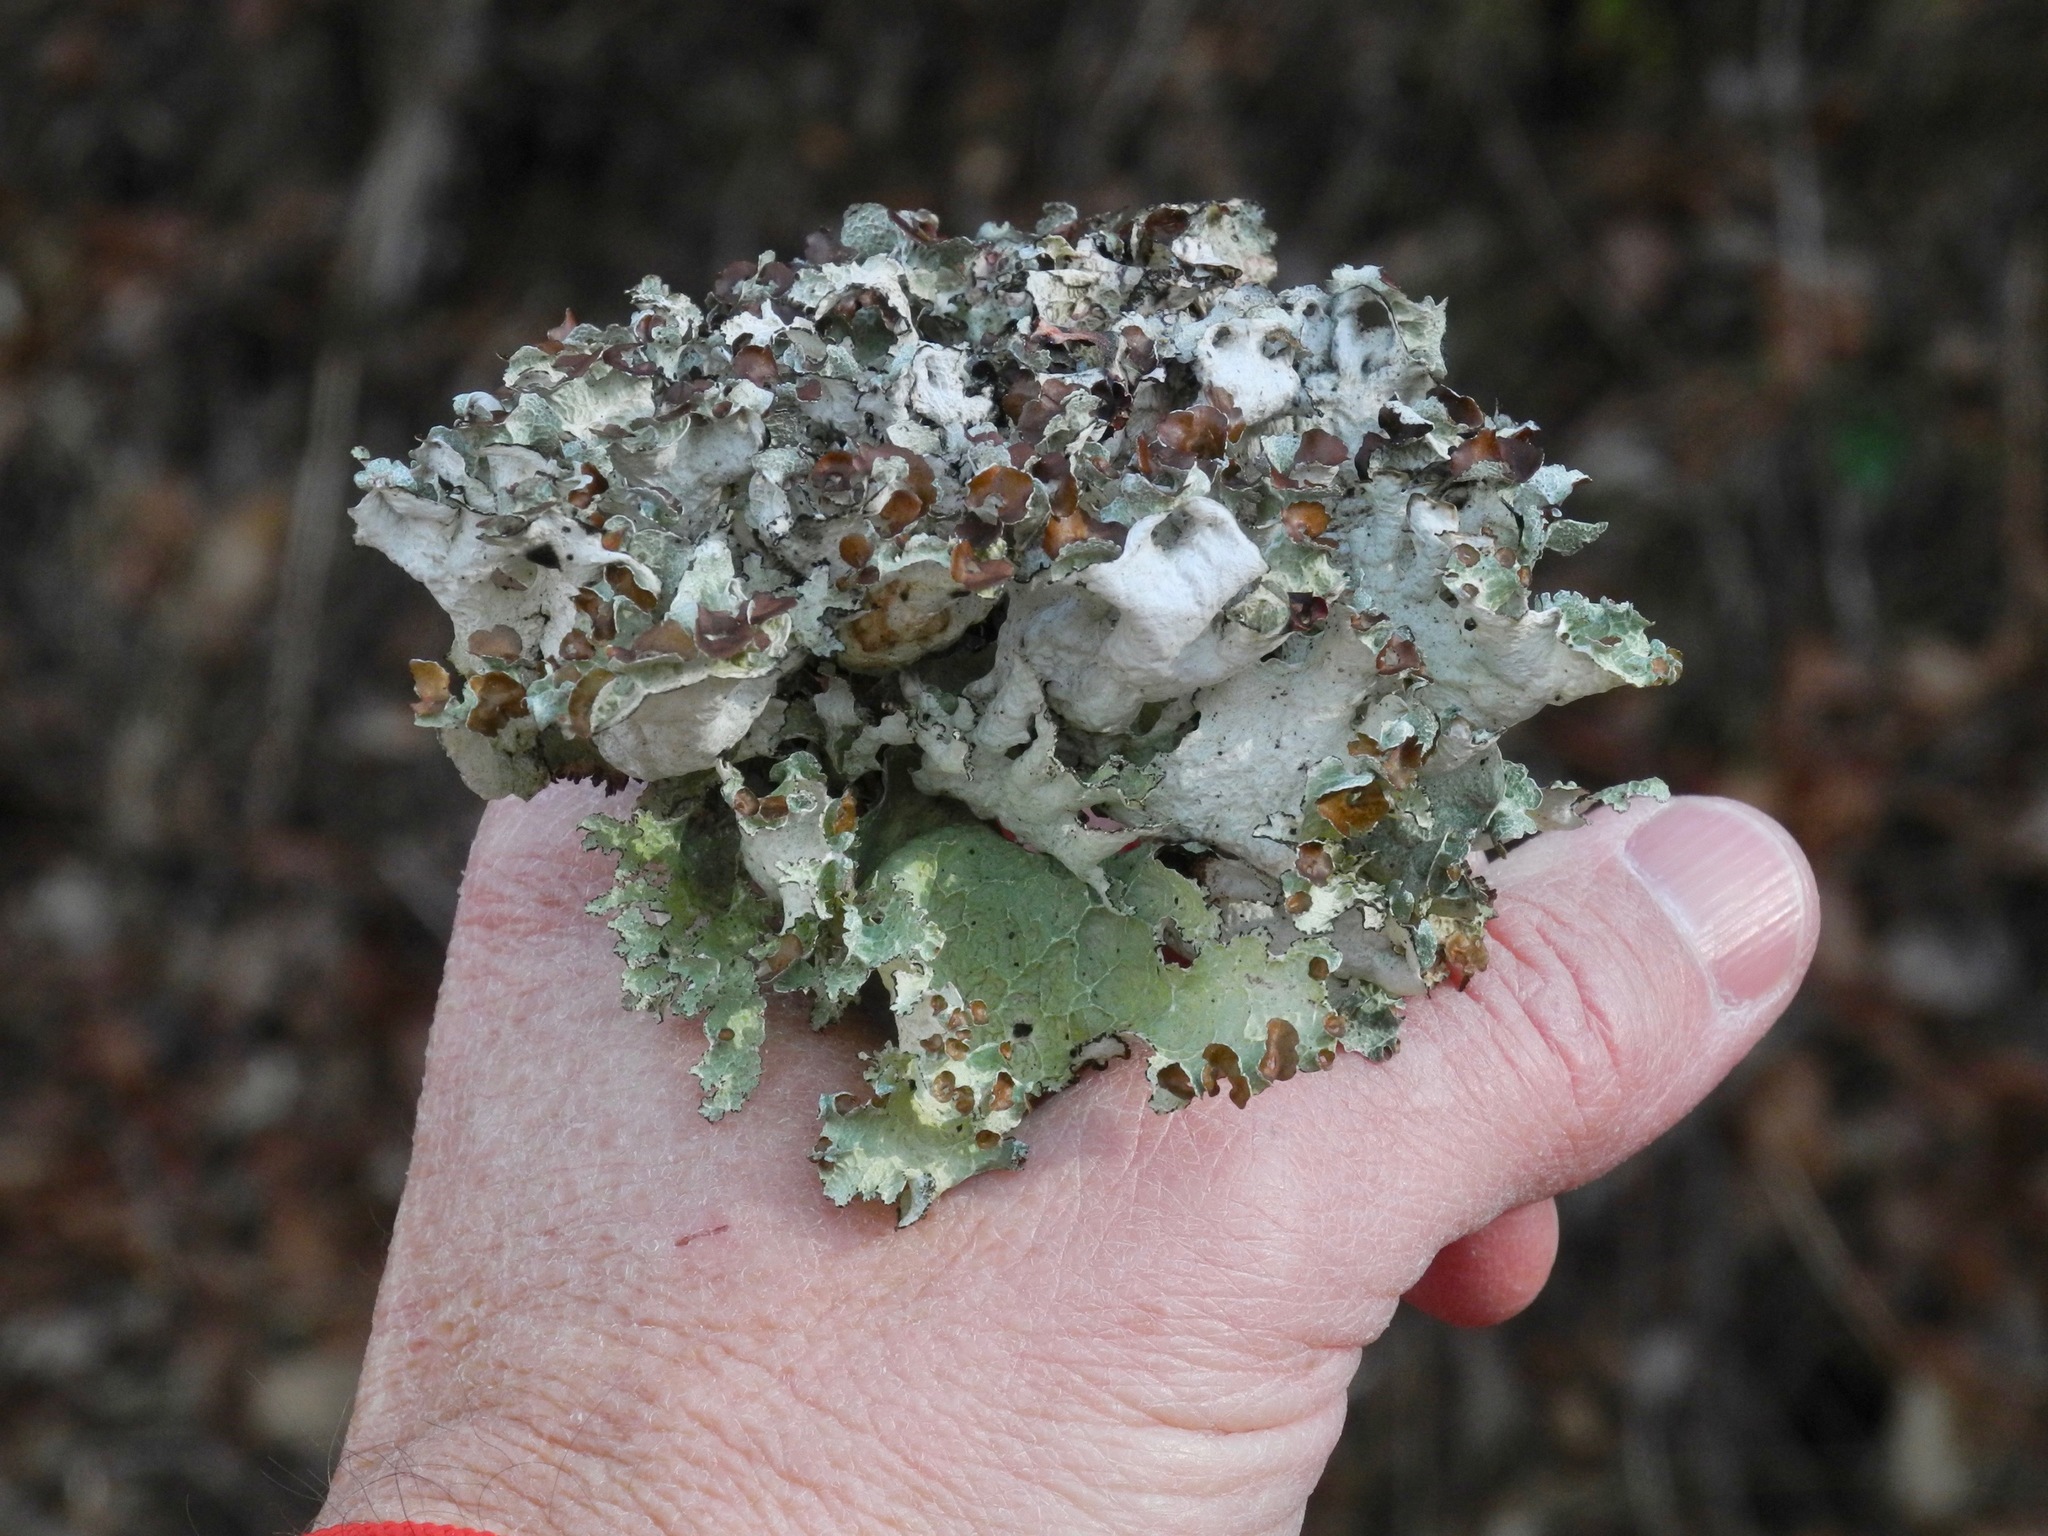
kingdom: Fungi
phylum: Ascomycota
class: Lecanoromycetes
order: Lecanorales
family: Parmeliaceae
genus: Platismatia
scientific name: Platismatia tuckermanii
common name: Crumpled rag lichen
